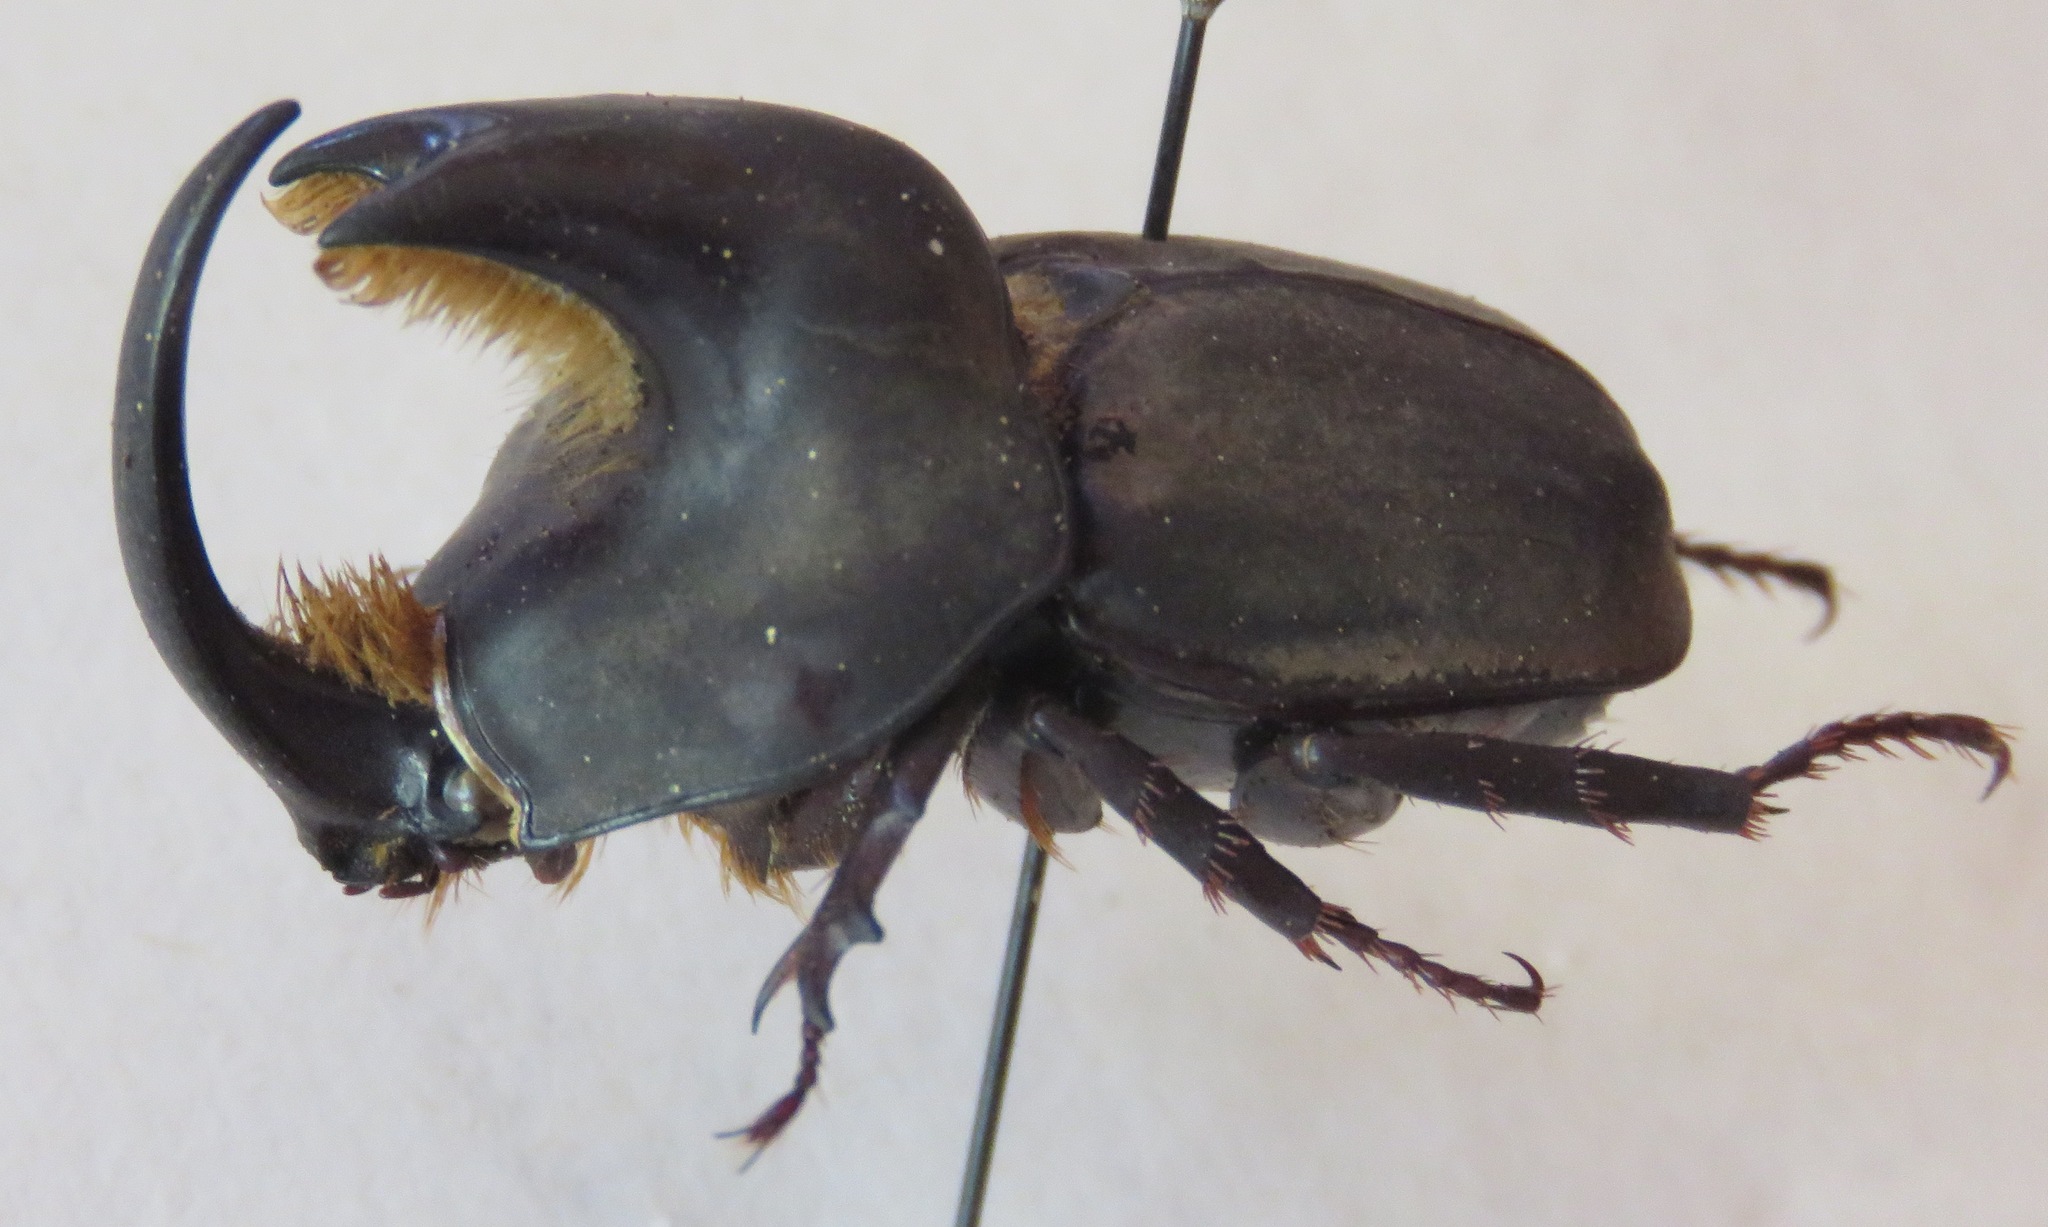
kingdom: Animalia
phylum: Arthropoda
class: Insecta
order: Coleoptera
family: Scarabaeidae
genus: Diloboderus
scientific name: Diloboderus abderus
